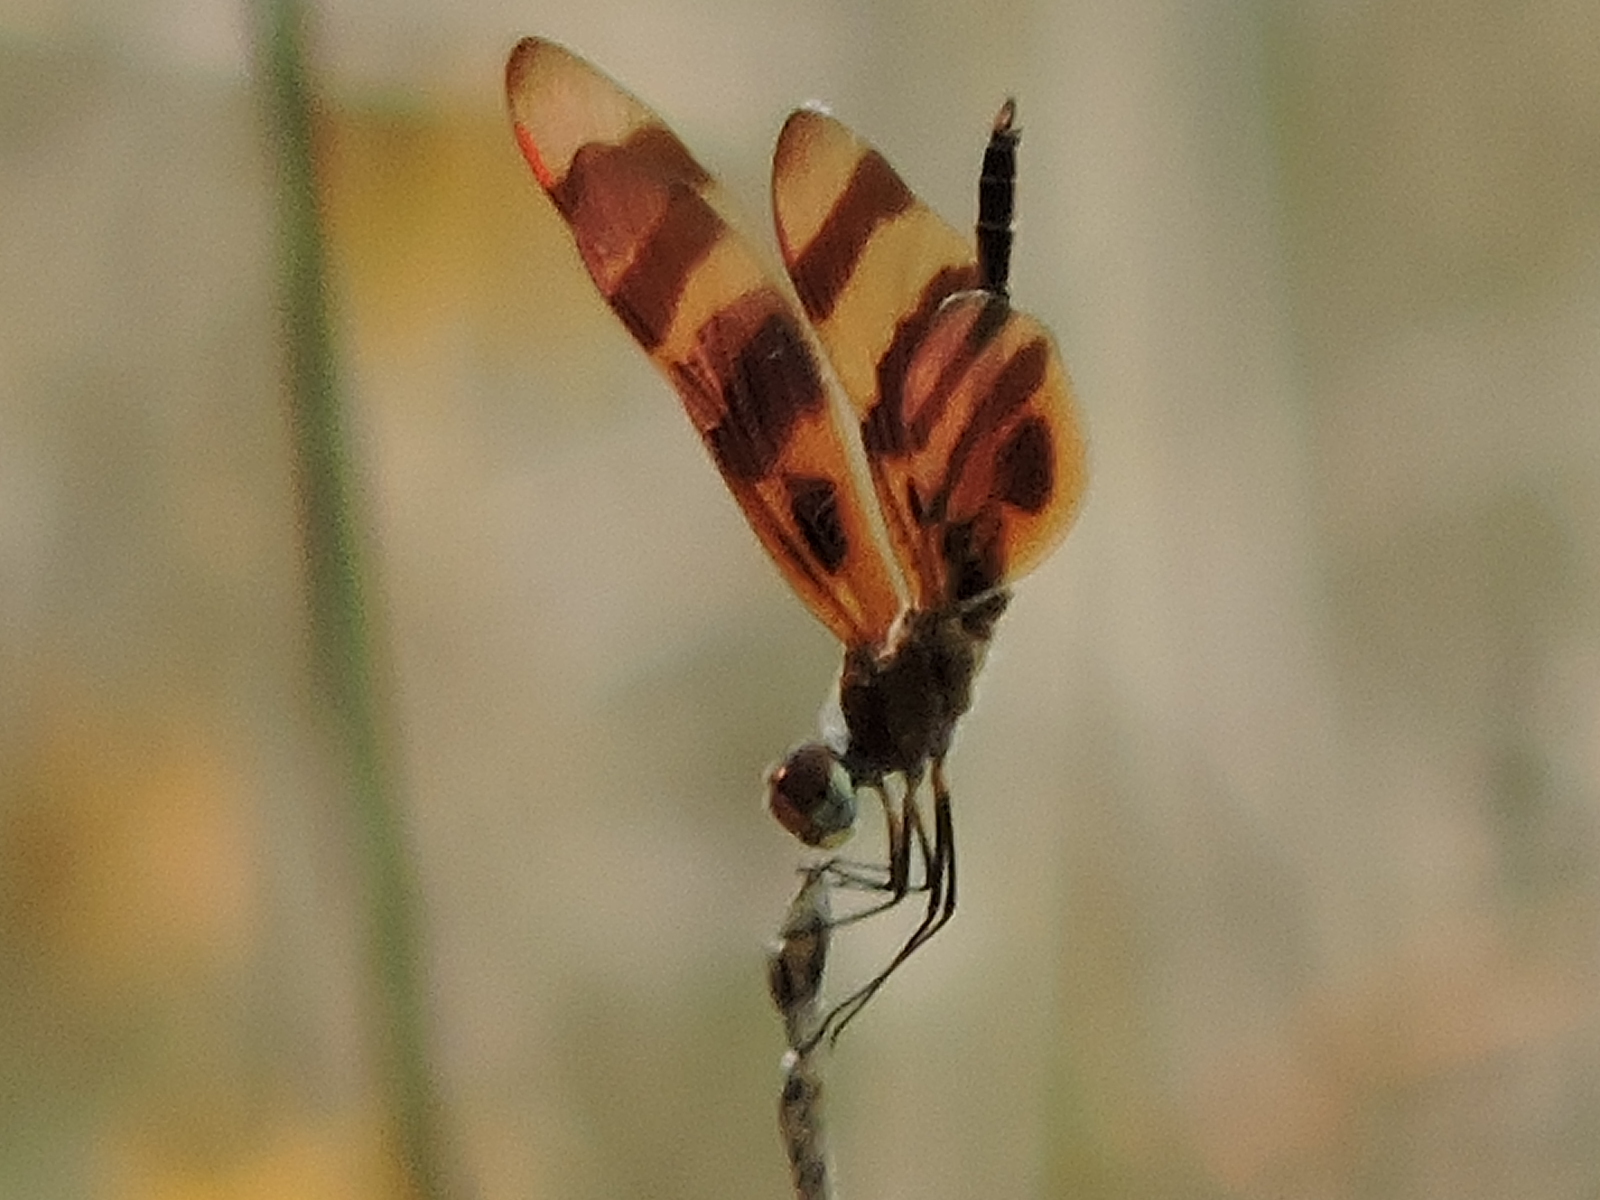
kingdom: Animalia
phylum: Arthropoda
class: Insecta
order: Odonata
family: Libellulidae
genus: Celithemis
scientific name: Celithemis eponina
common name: Halloween pennant
